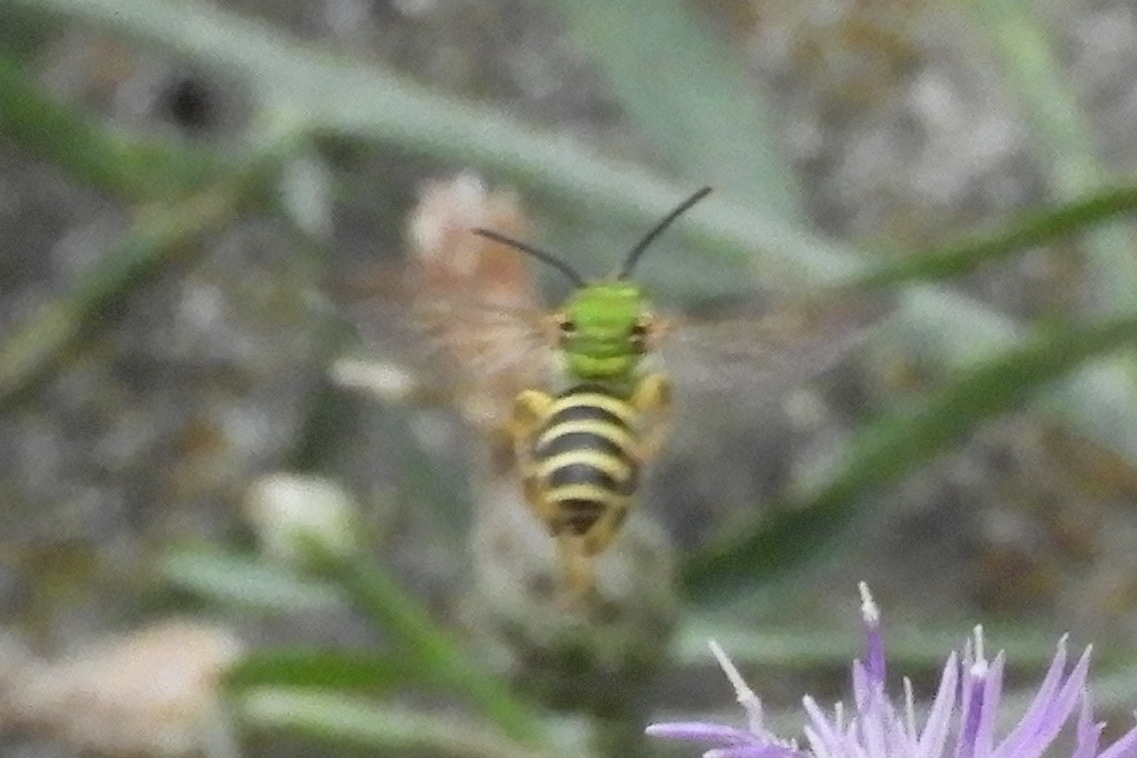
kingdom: Animalia
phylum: Arthropoda
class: Insecta
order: Hymenoptera
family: Halictidae
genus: Agapostemon
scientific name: Agapostemon splendens
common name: Brown-winged striped sweat bee
